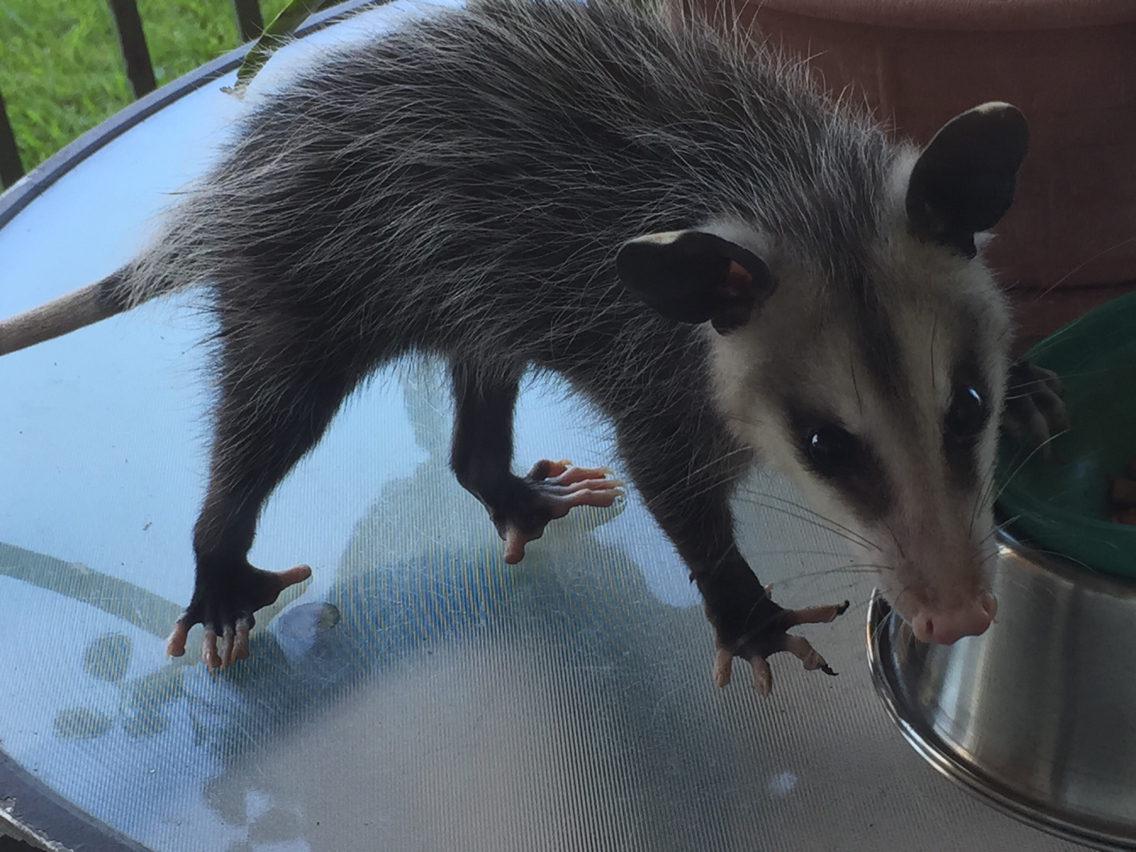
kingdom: Animalia
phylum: Chordata
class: Mammalia
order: Didelphimorphia
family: Didelphidae
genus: Didelphis
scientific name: Didelphis virginiana
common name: Virginia opossum
